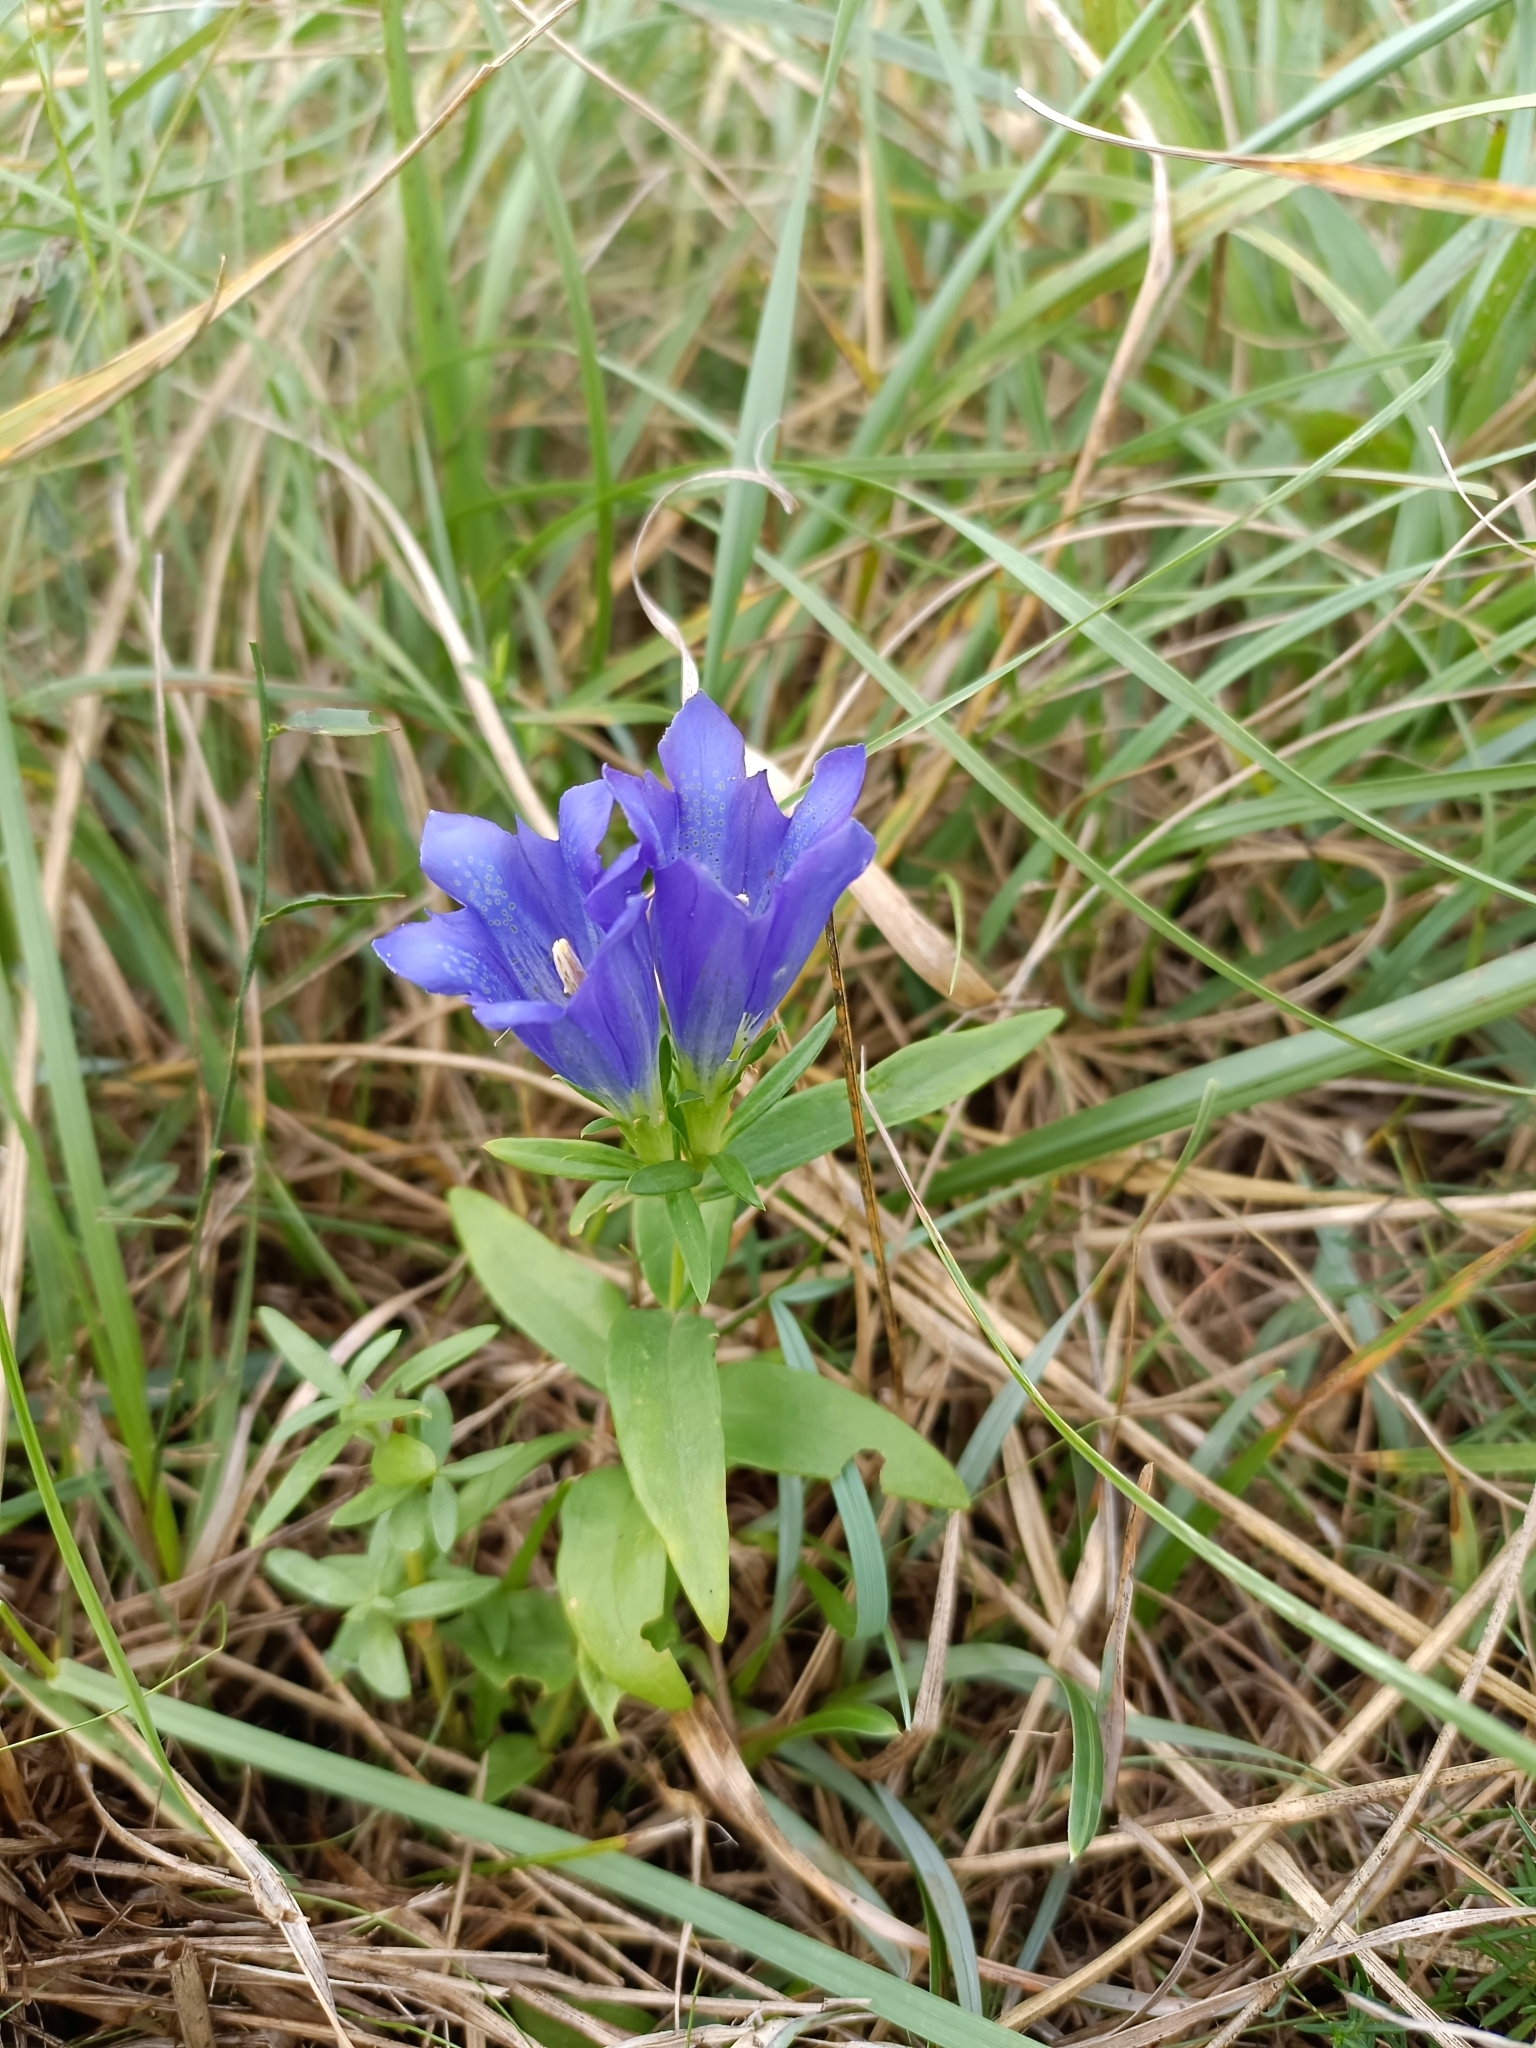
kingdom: Plantae
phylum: Tracheophyta
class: Magnoliopsida
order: Gentianales
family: Gentianaceae
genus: Gentiana
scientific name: Gentiana pneumonanthe
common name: Marsh gentian
